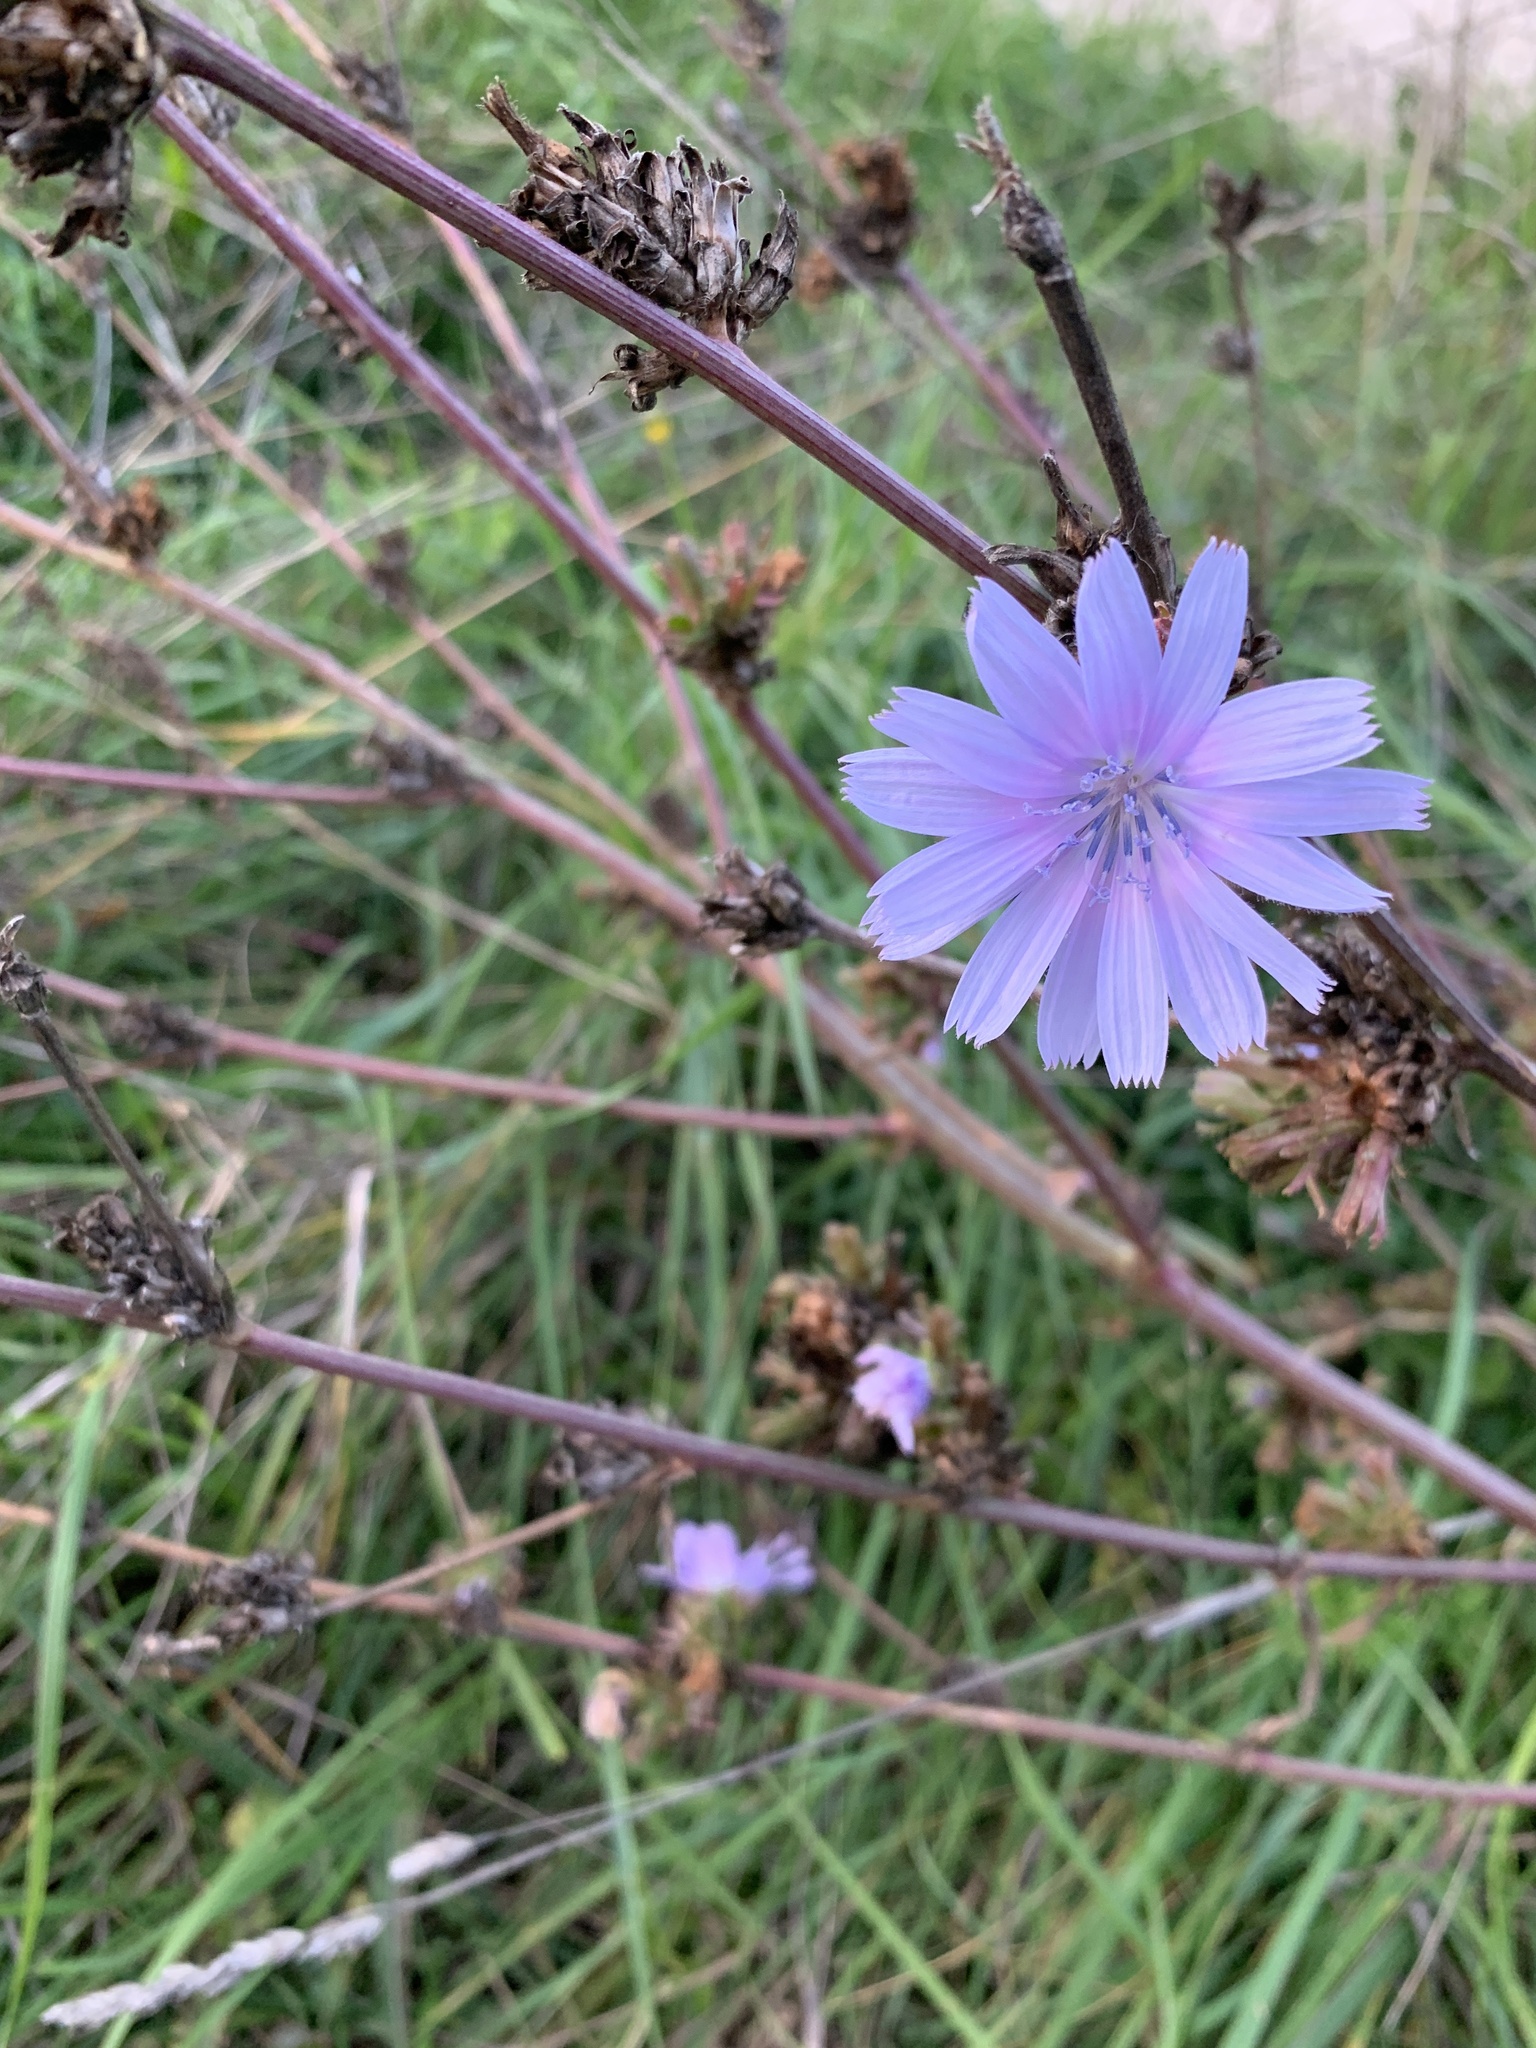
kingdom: Plantae
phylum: Tracheophyta
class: Magnoliopsida
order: Asterales
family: Asteraceae
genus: Cichorium
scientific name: Cichorium intybus
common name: Chicory
